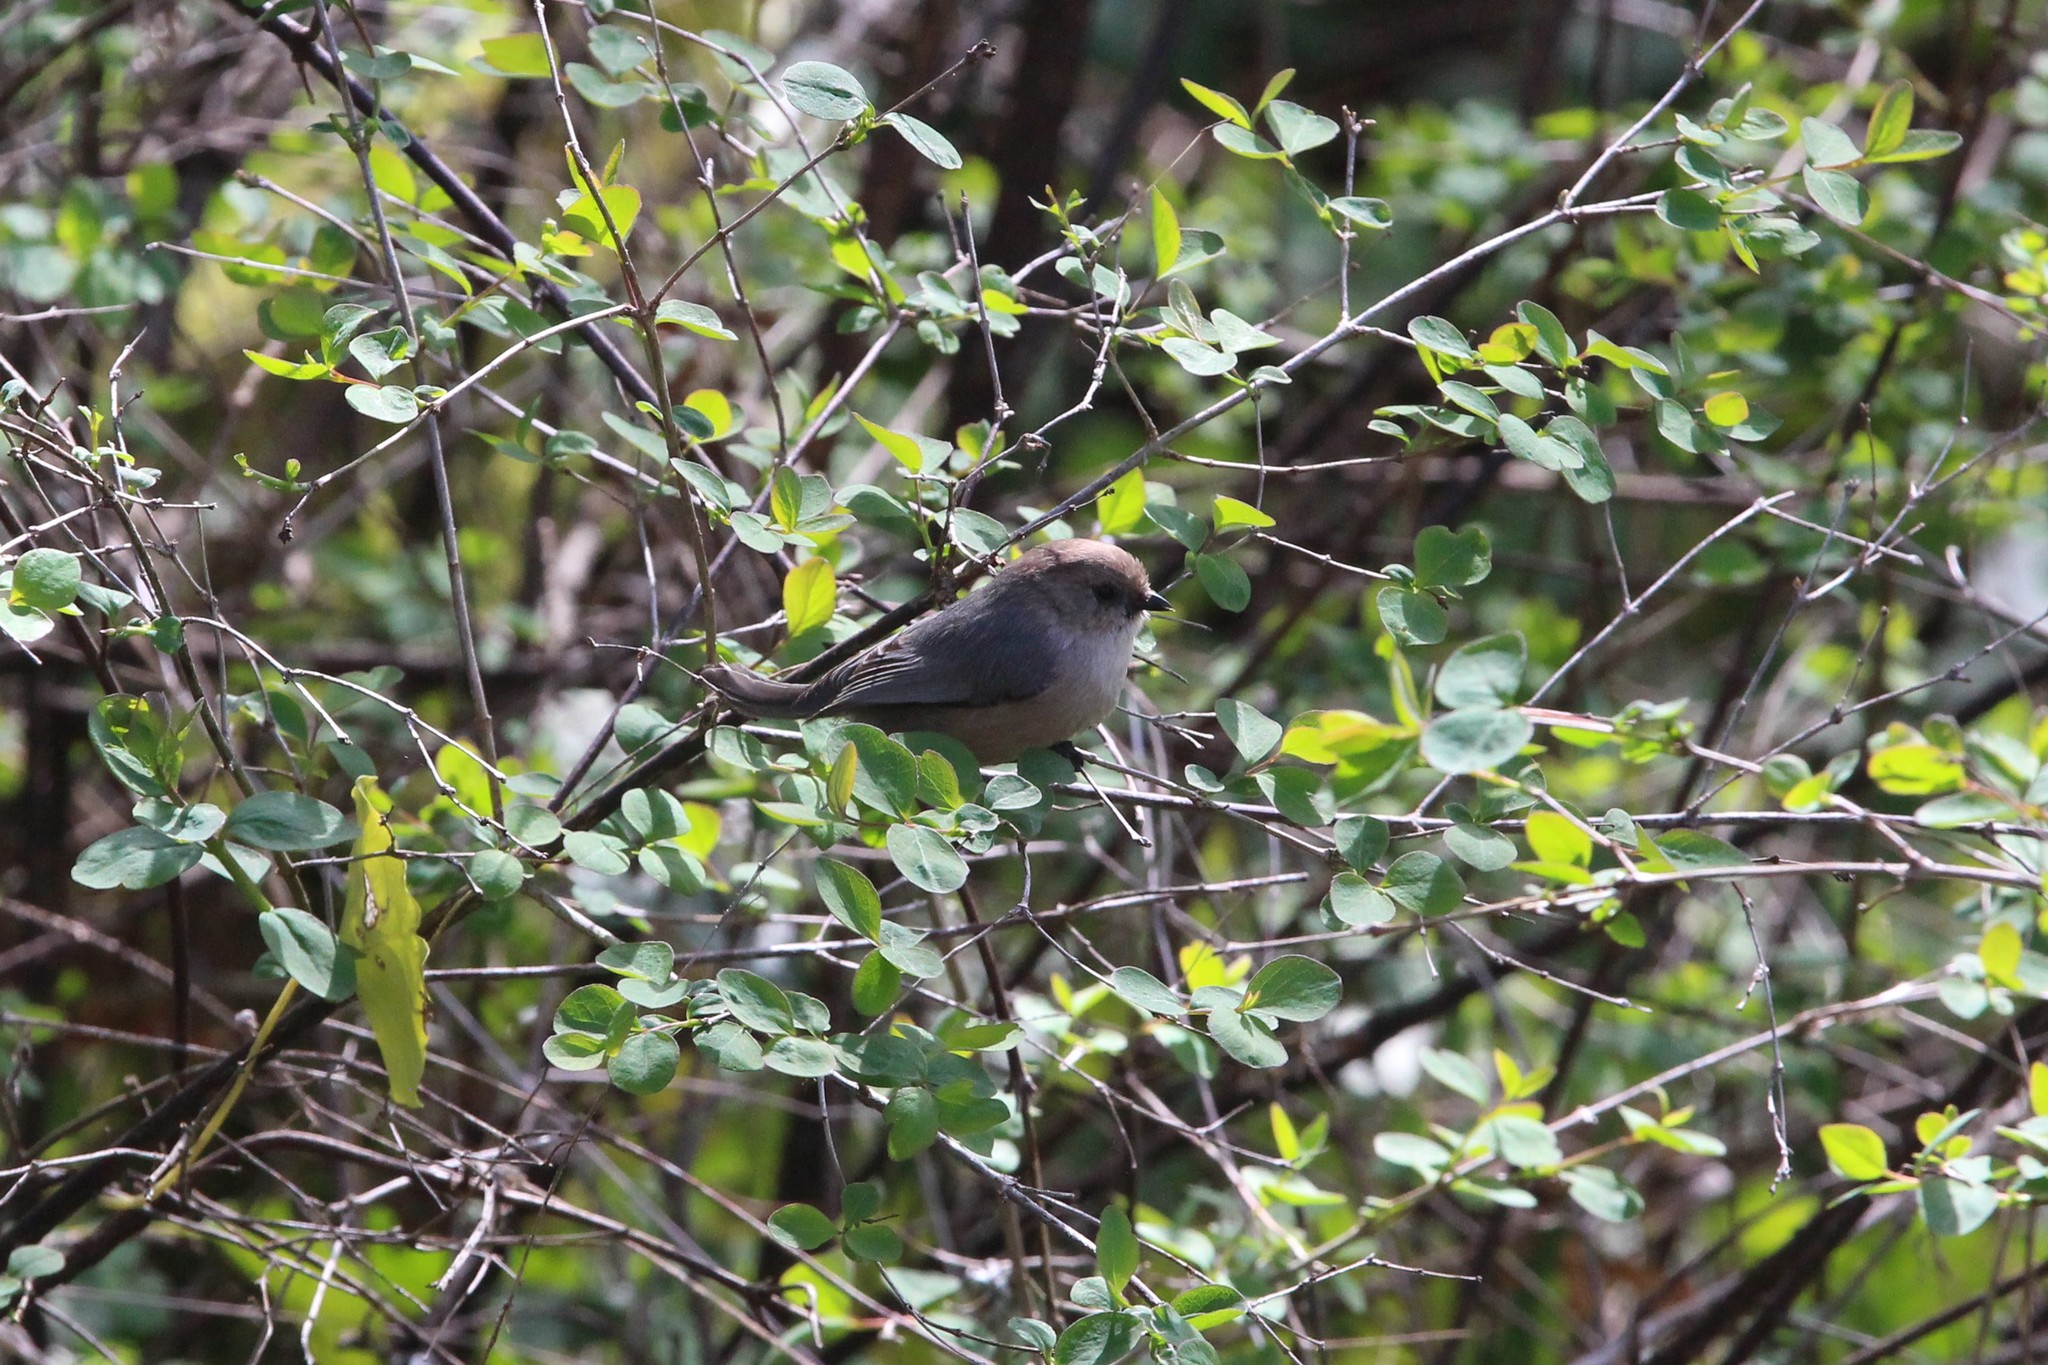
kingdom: Animalia
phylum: Chordata
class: Aves
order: Passeriformes
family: Aegithalidae
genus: Psaltriparus
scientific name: Psaltriparus minimus
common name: American bushtit
